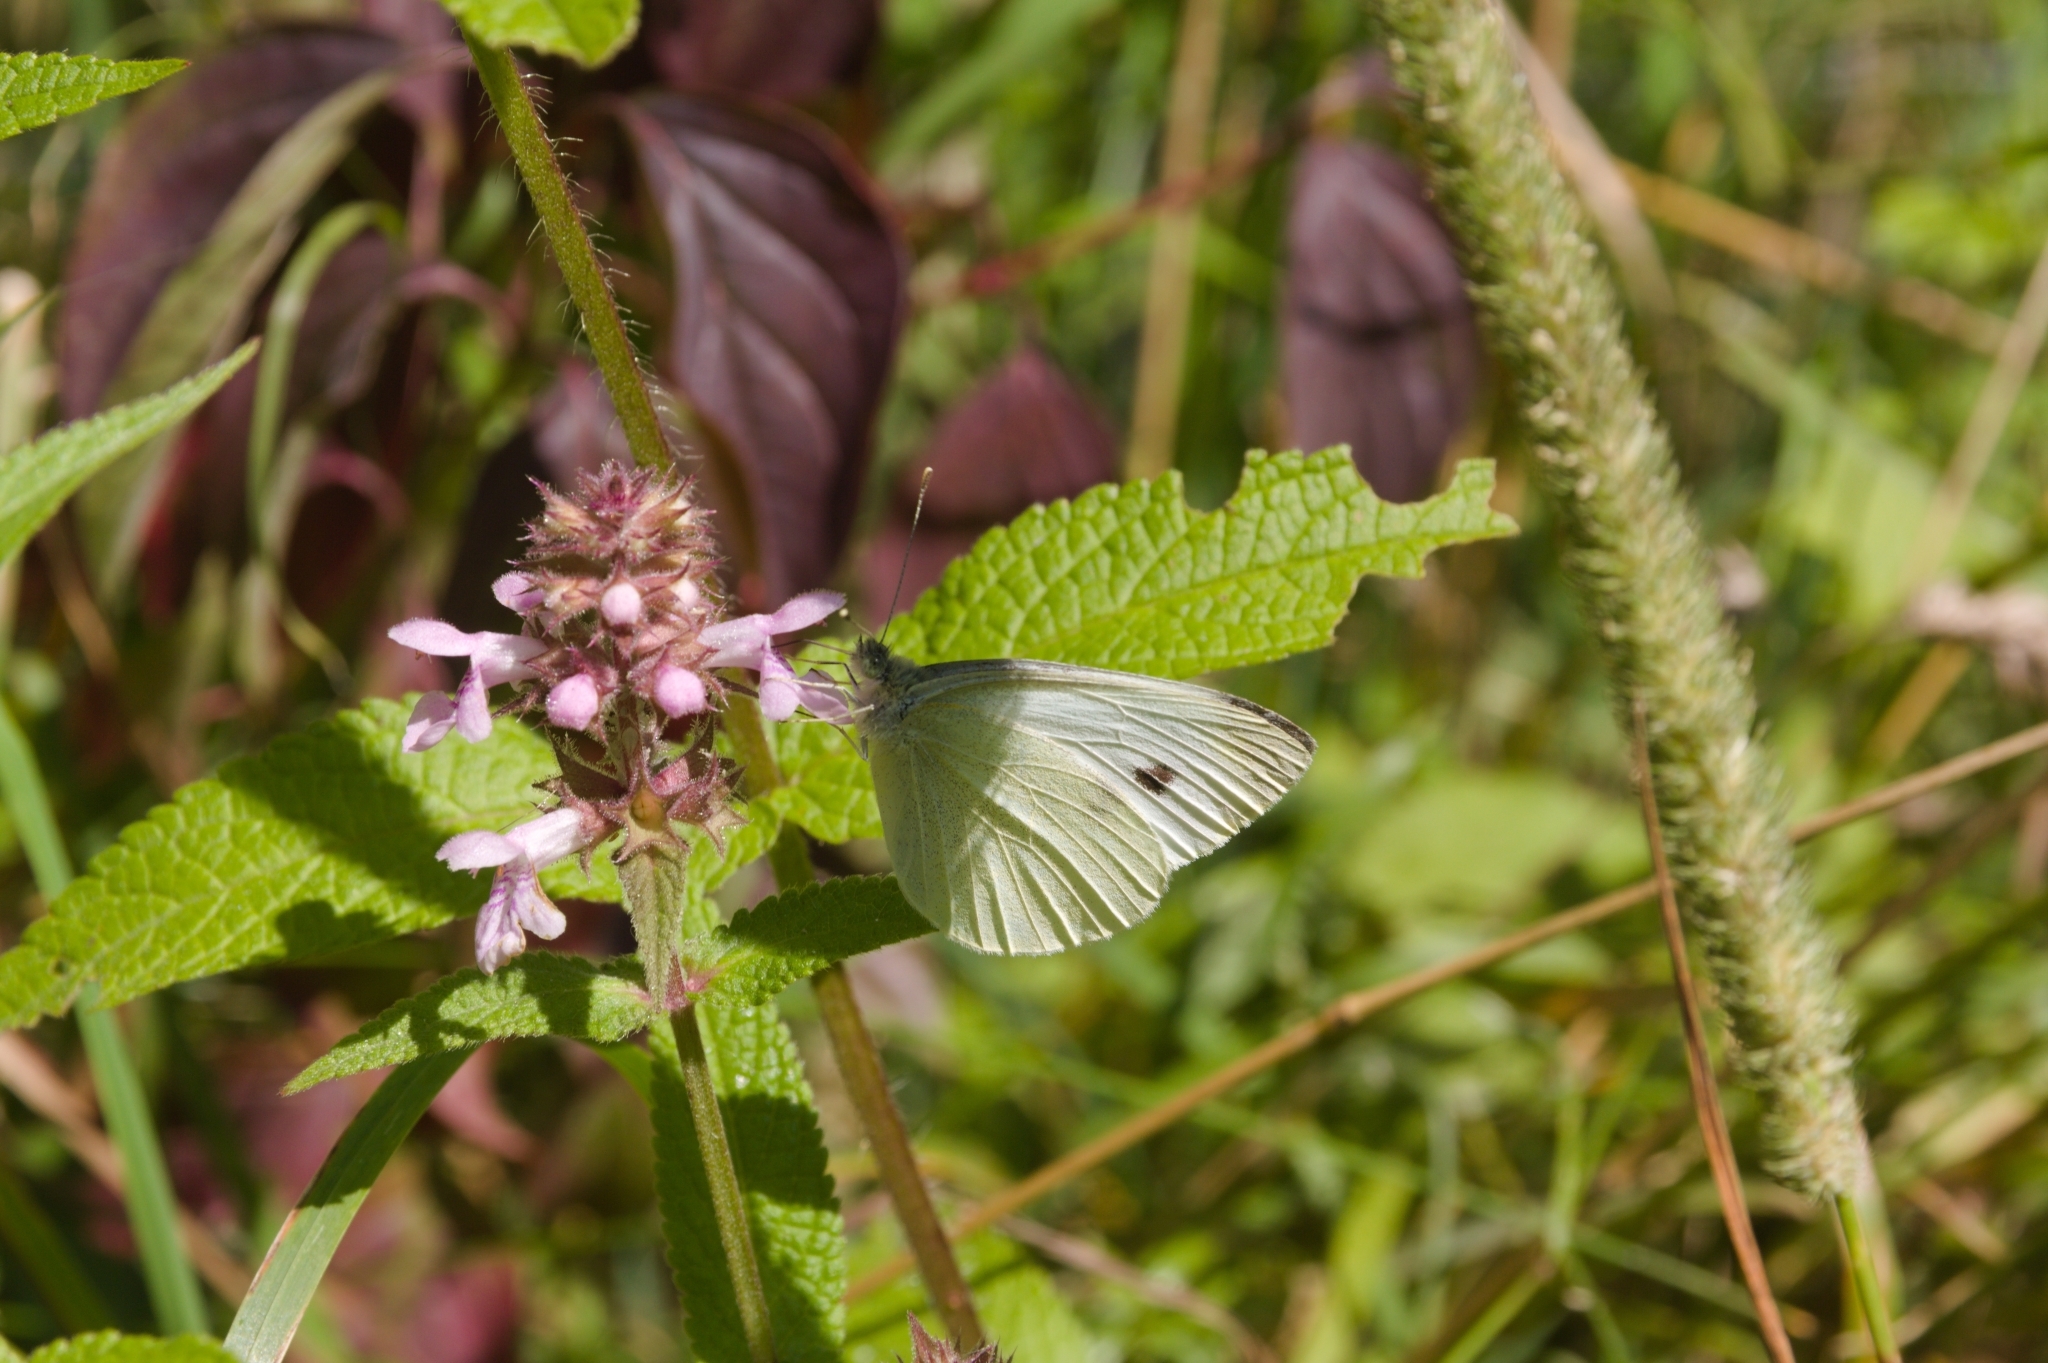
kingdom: Animalia
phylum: Arthropoda
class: Insecta
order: Lepidoptera
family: Pieridae
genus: Pieris
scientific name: Pieris rapae
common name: Small white
